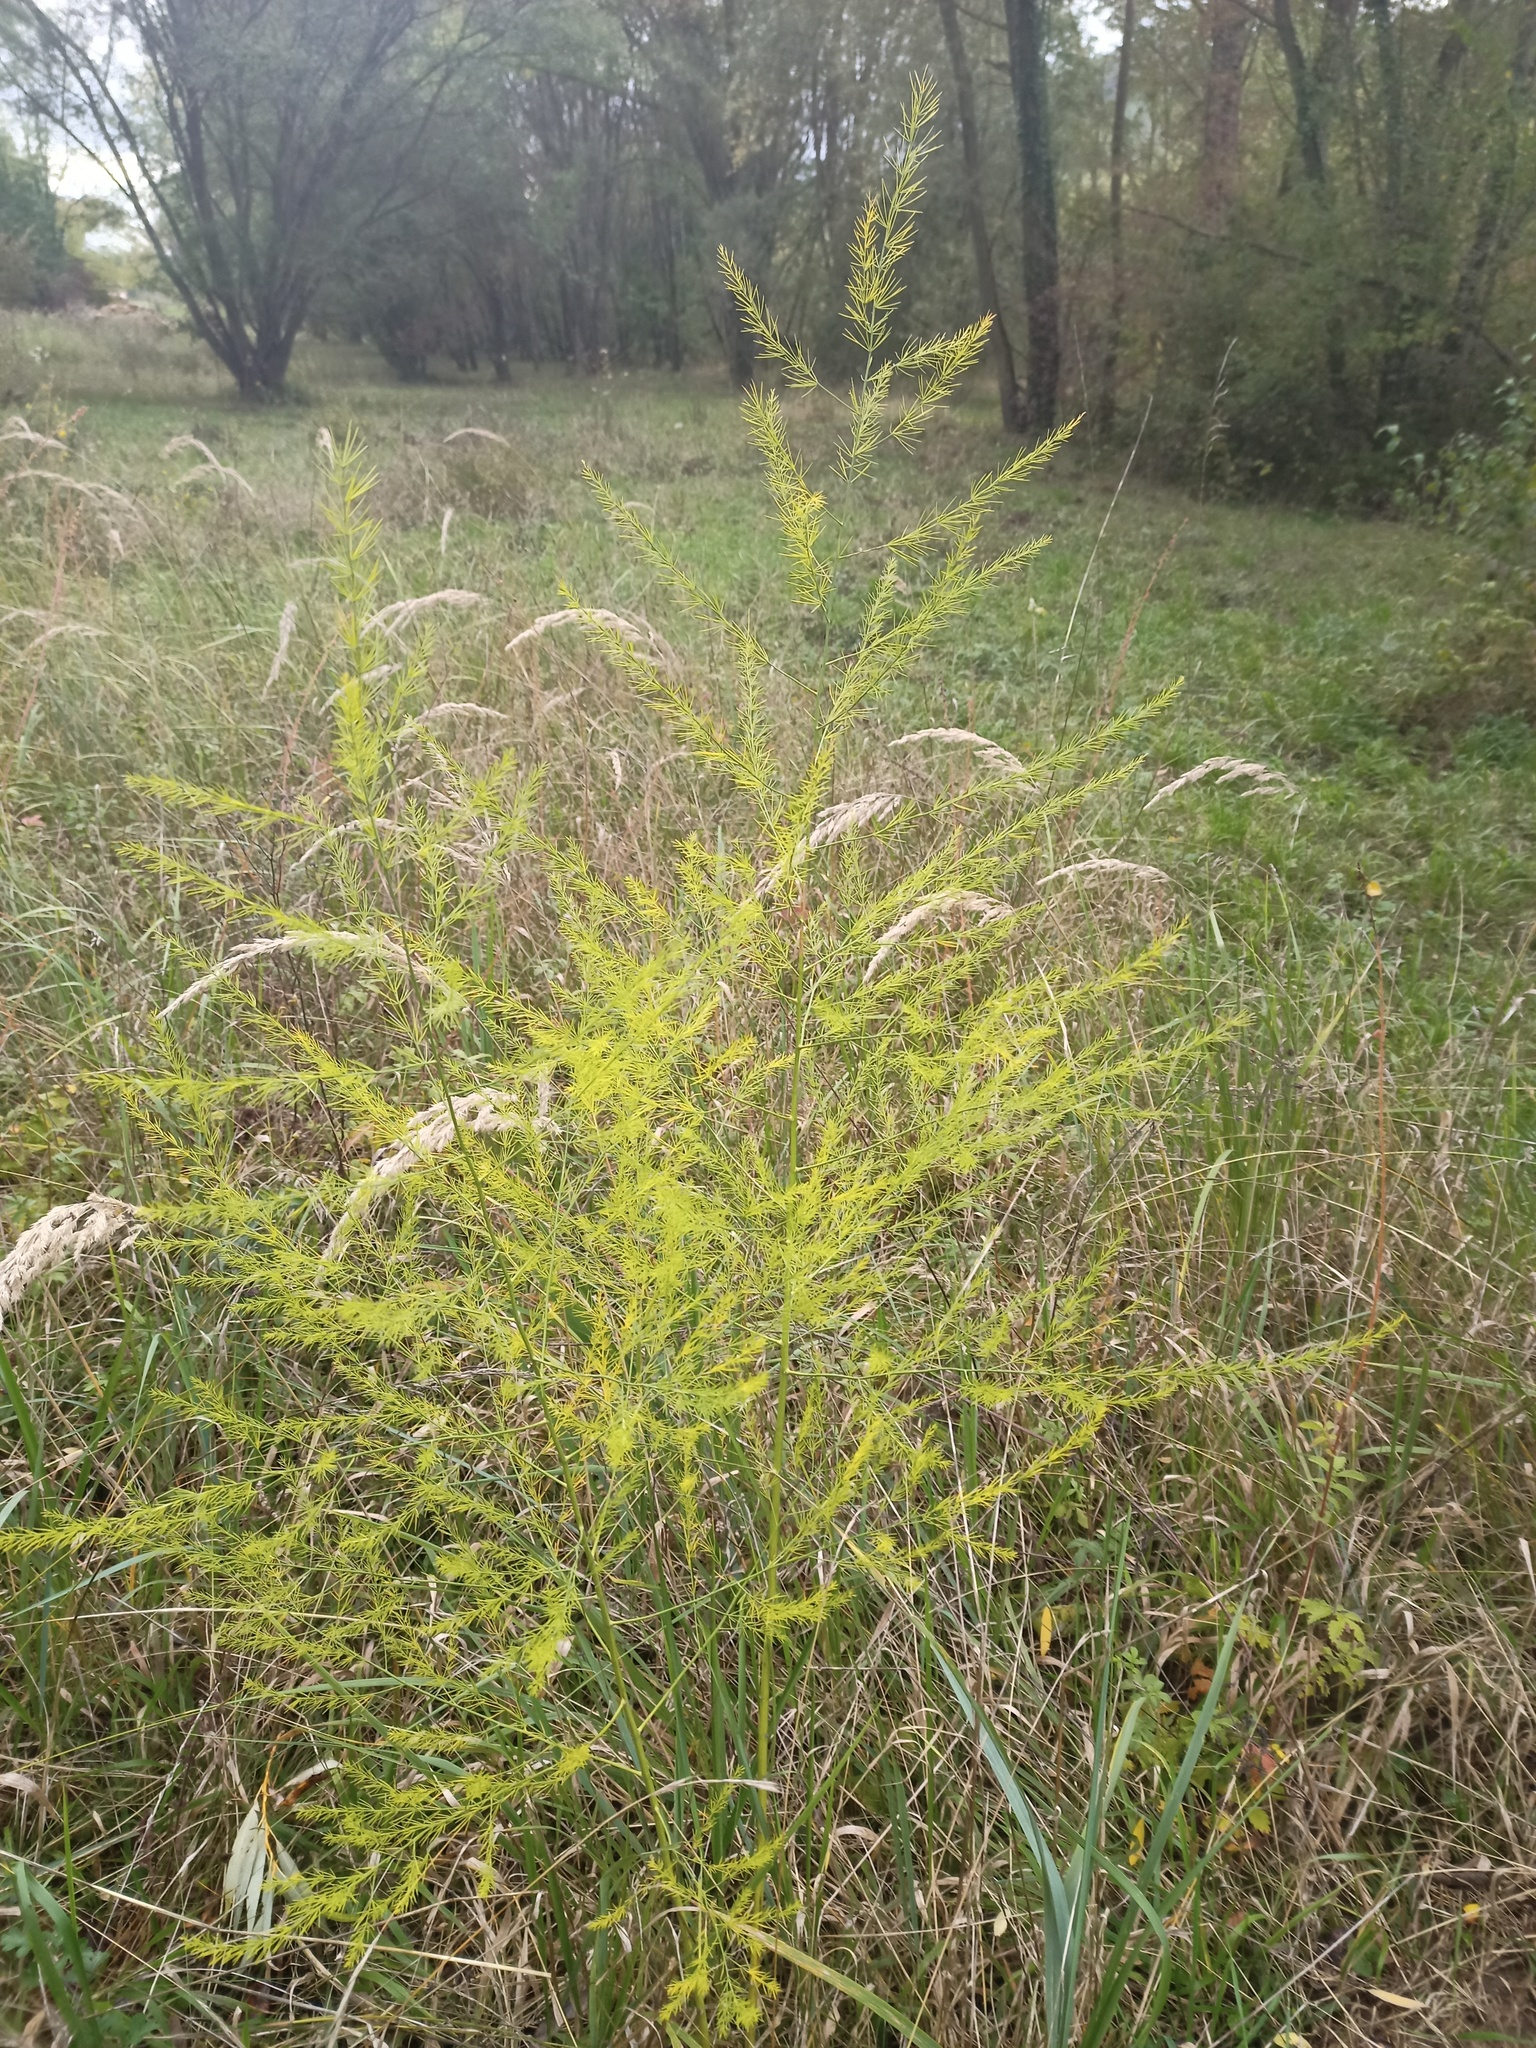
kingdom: Plantae
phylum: Tracheophyta
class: Liliopsida
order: Asparagales
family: Asparagaceae
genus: Asparagus
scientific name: Asparagus officinalis
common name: Garden asparagus
